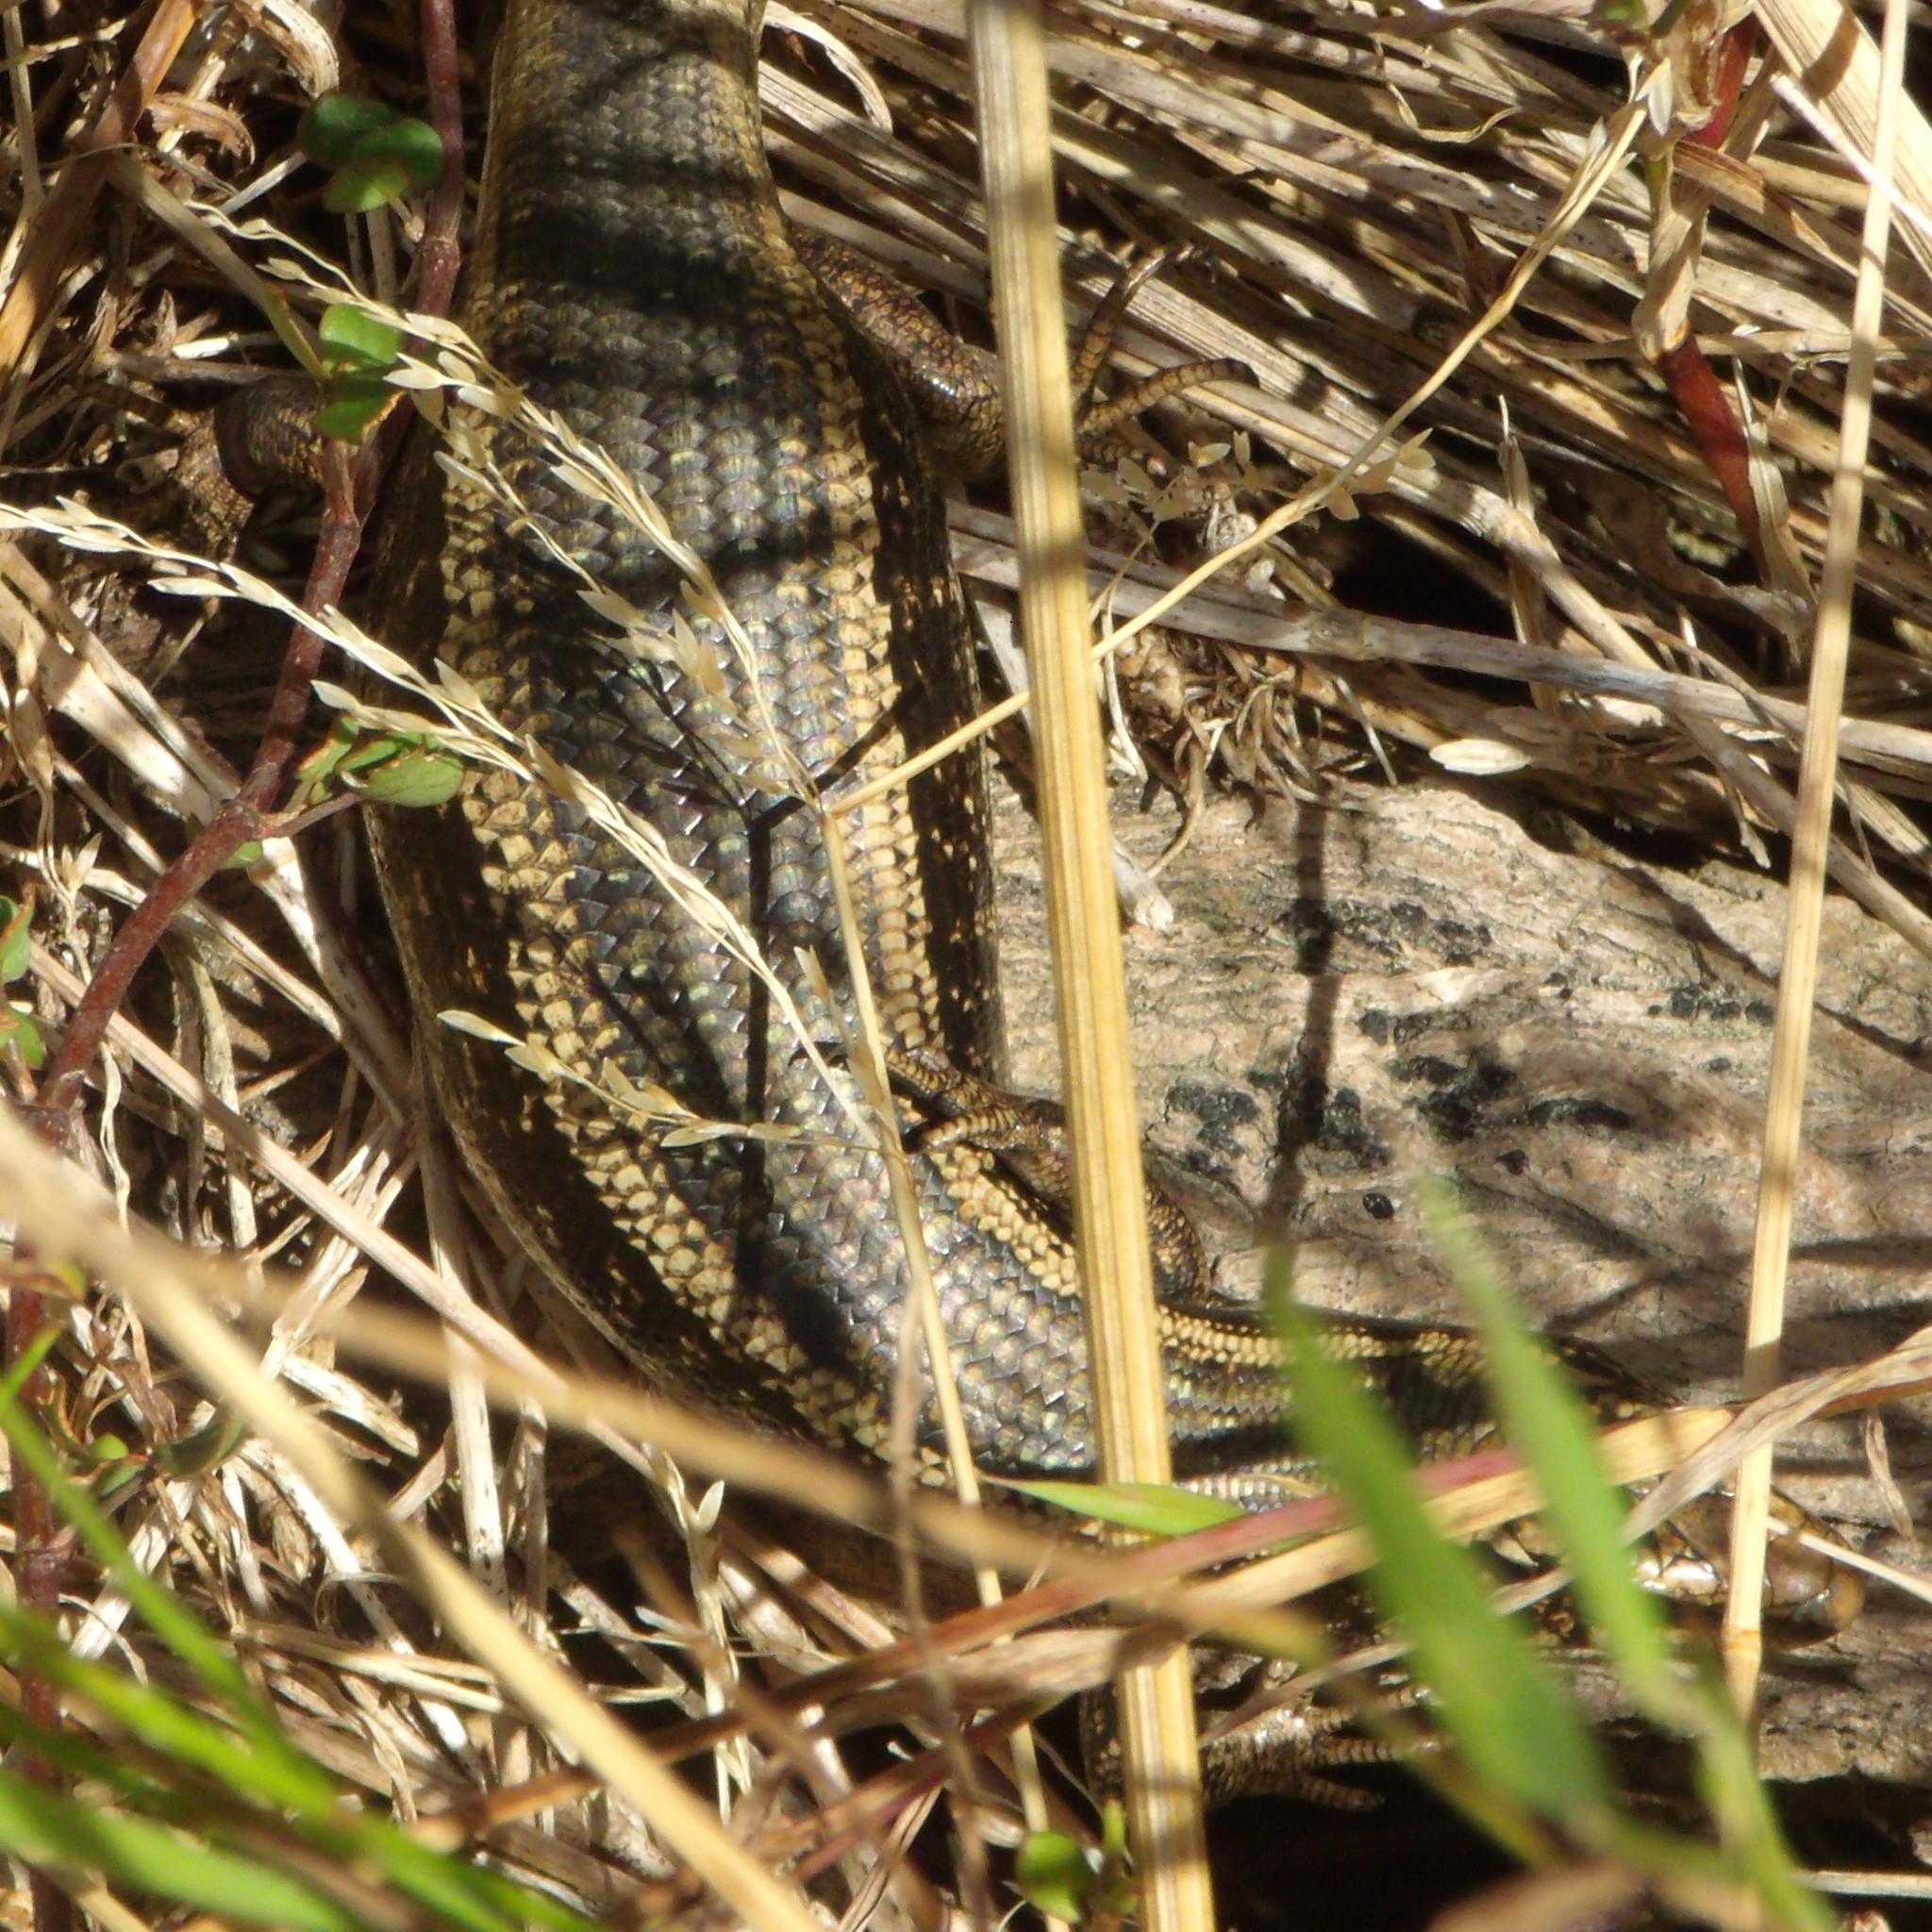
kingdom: Animalia
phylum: Chordata
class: Squamata
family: Scincidae
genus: Oligosoma
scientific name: Oligosoma kokowai
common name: Northern spotted skink
